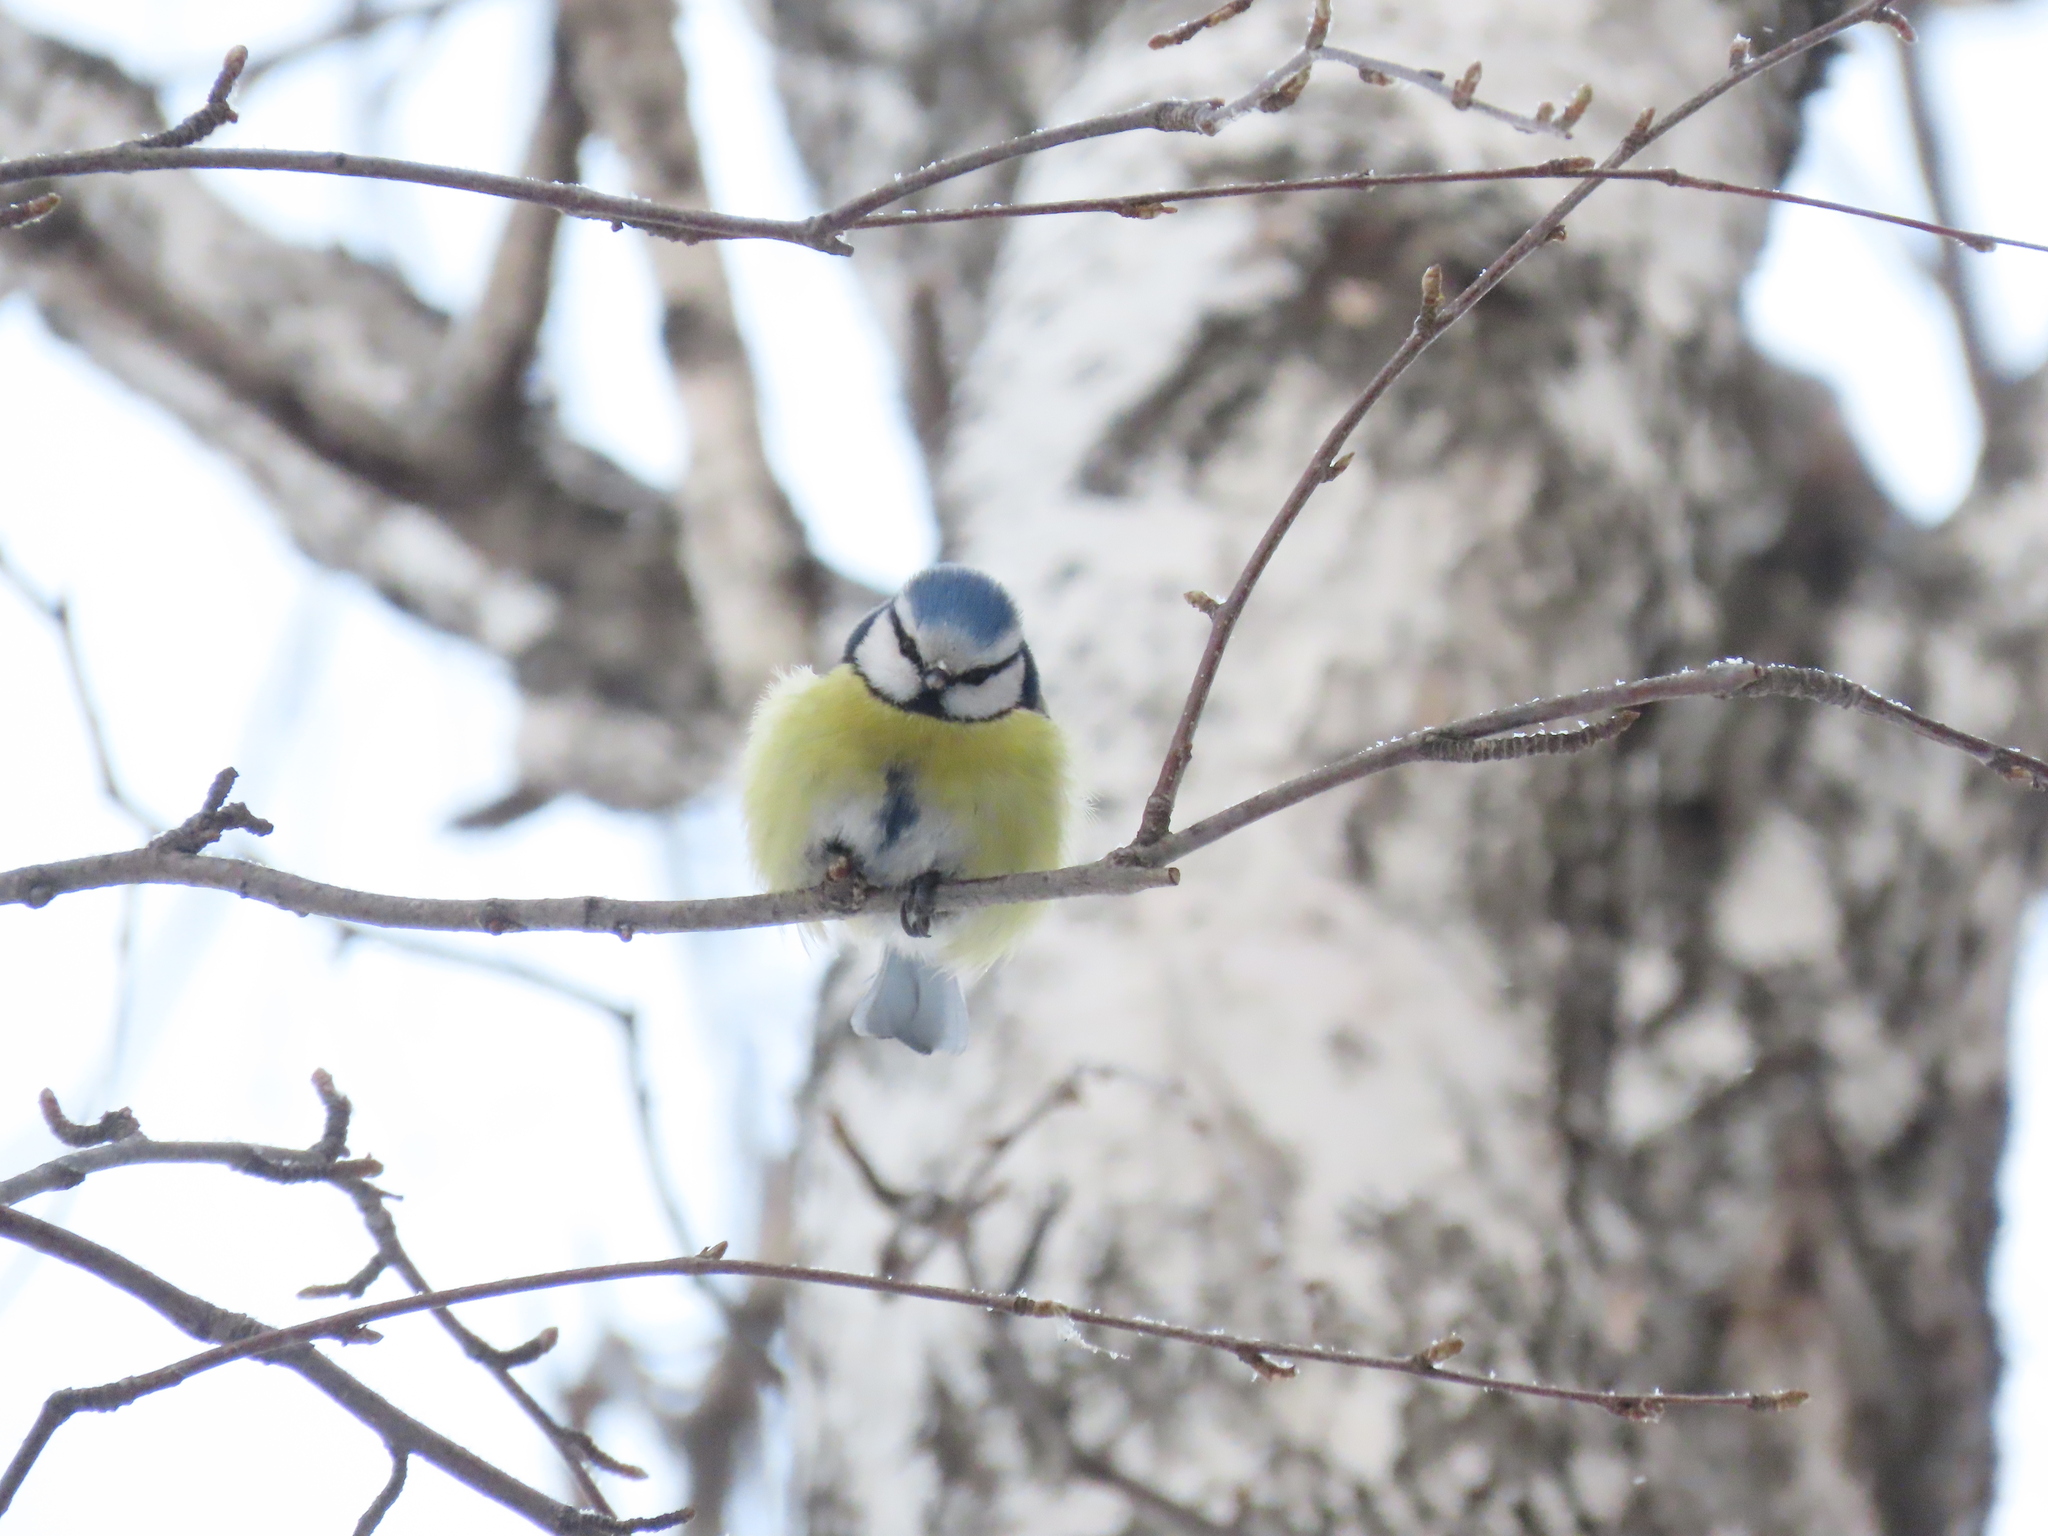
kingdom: Animalia
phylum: Chordata
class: Aves
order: Passeriformes
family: Paridae
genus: Cyanistes
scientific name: Cyanistes caeruleus
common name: Eurasian blue tit
